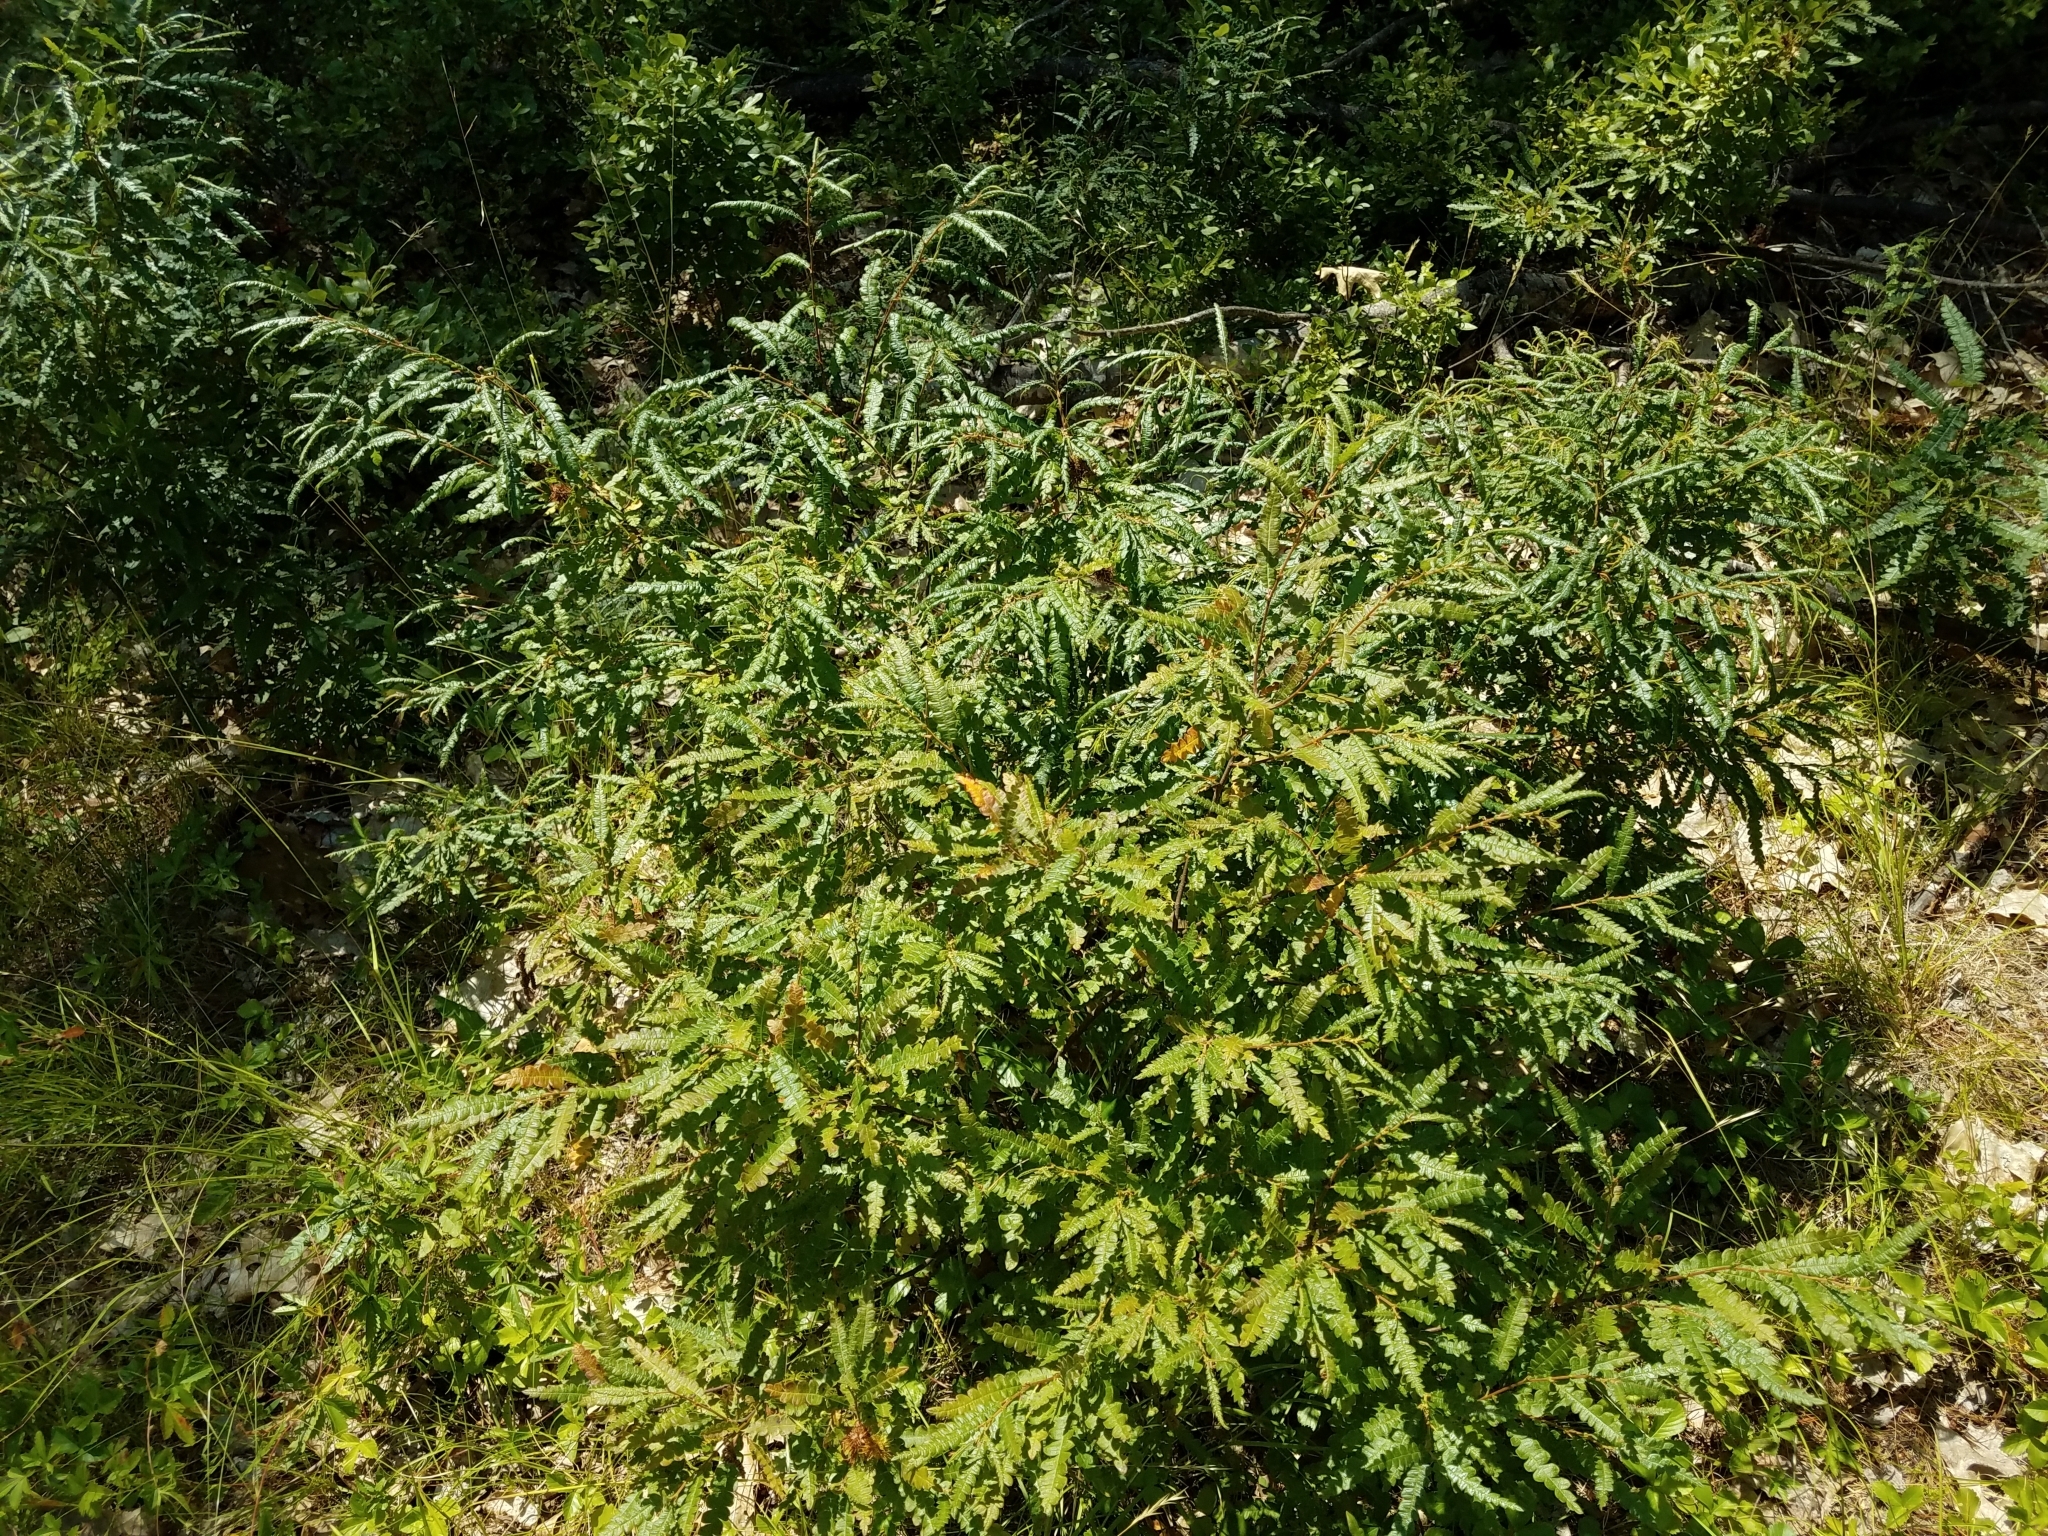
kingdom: Plantae
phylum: Tracheophyta
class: Magnoliopsida
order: Fagales
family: Myricaceae
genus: Comptonia
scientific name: Comptonia peregrina
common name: Sweet-fern
